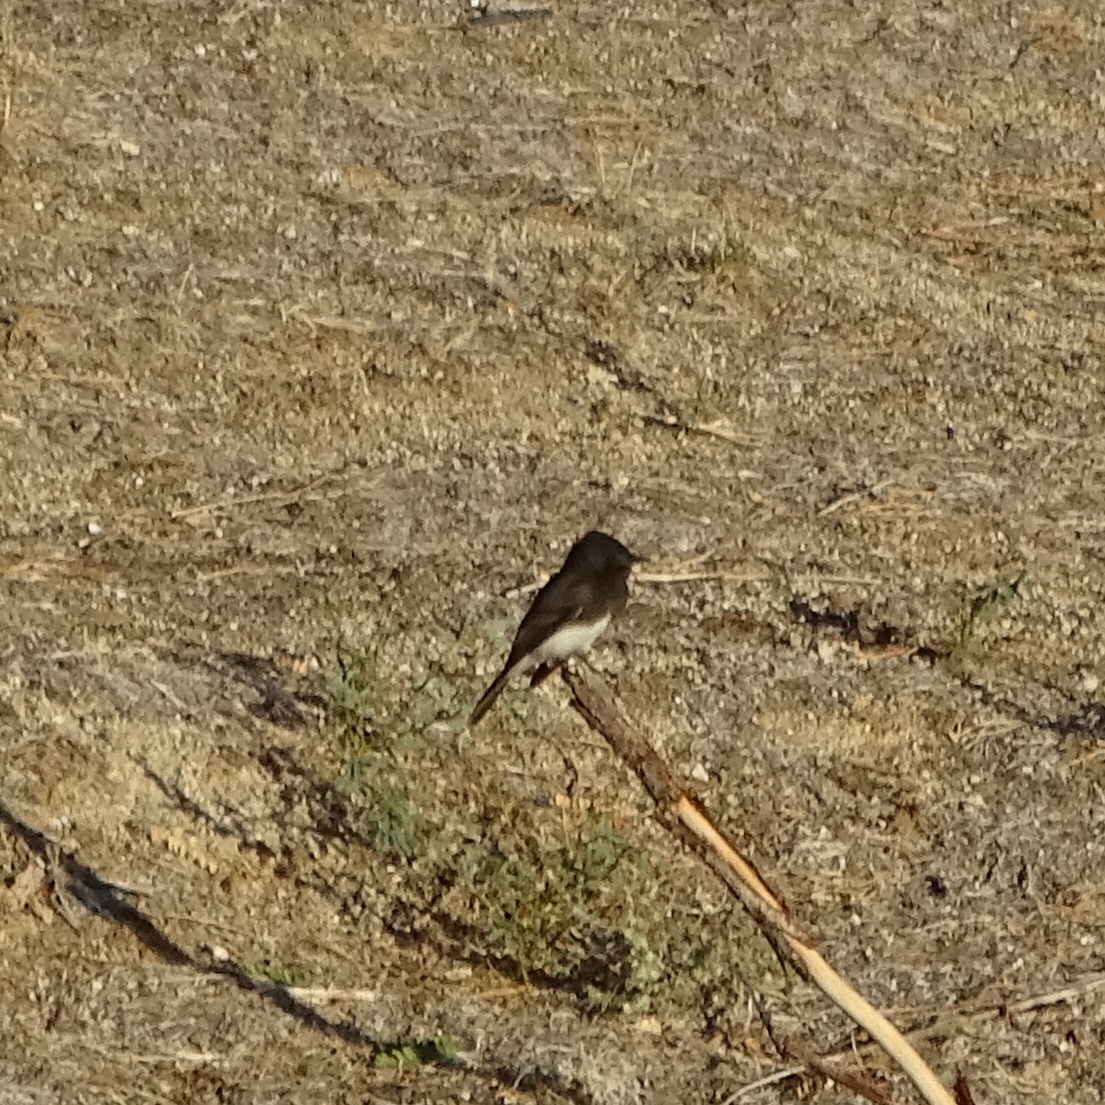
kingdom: Animalia
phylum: Chordata
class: Aves
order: Passeriformes
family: Tyrannidae
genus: Sayornis
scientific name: Sayornis nigricans
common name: Black phoebe
